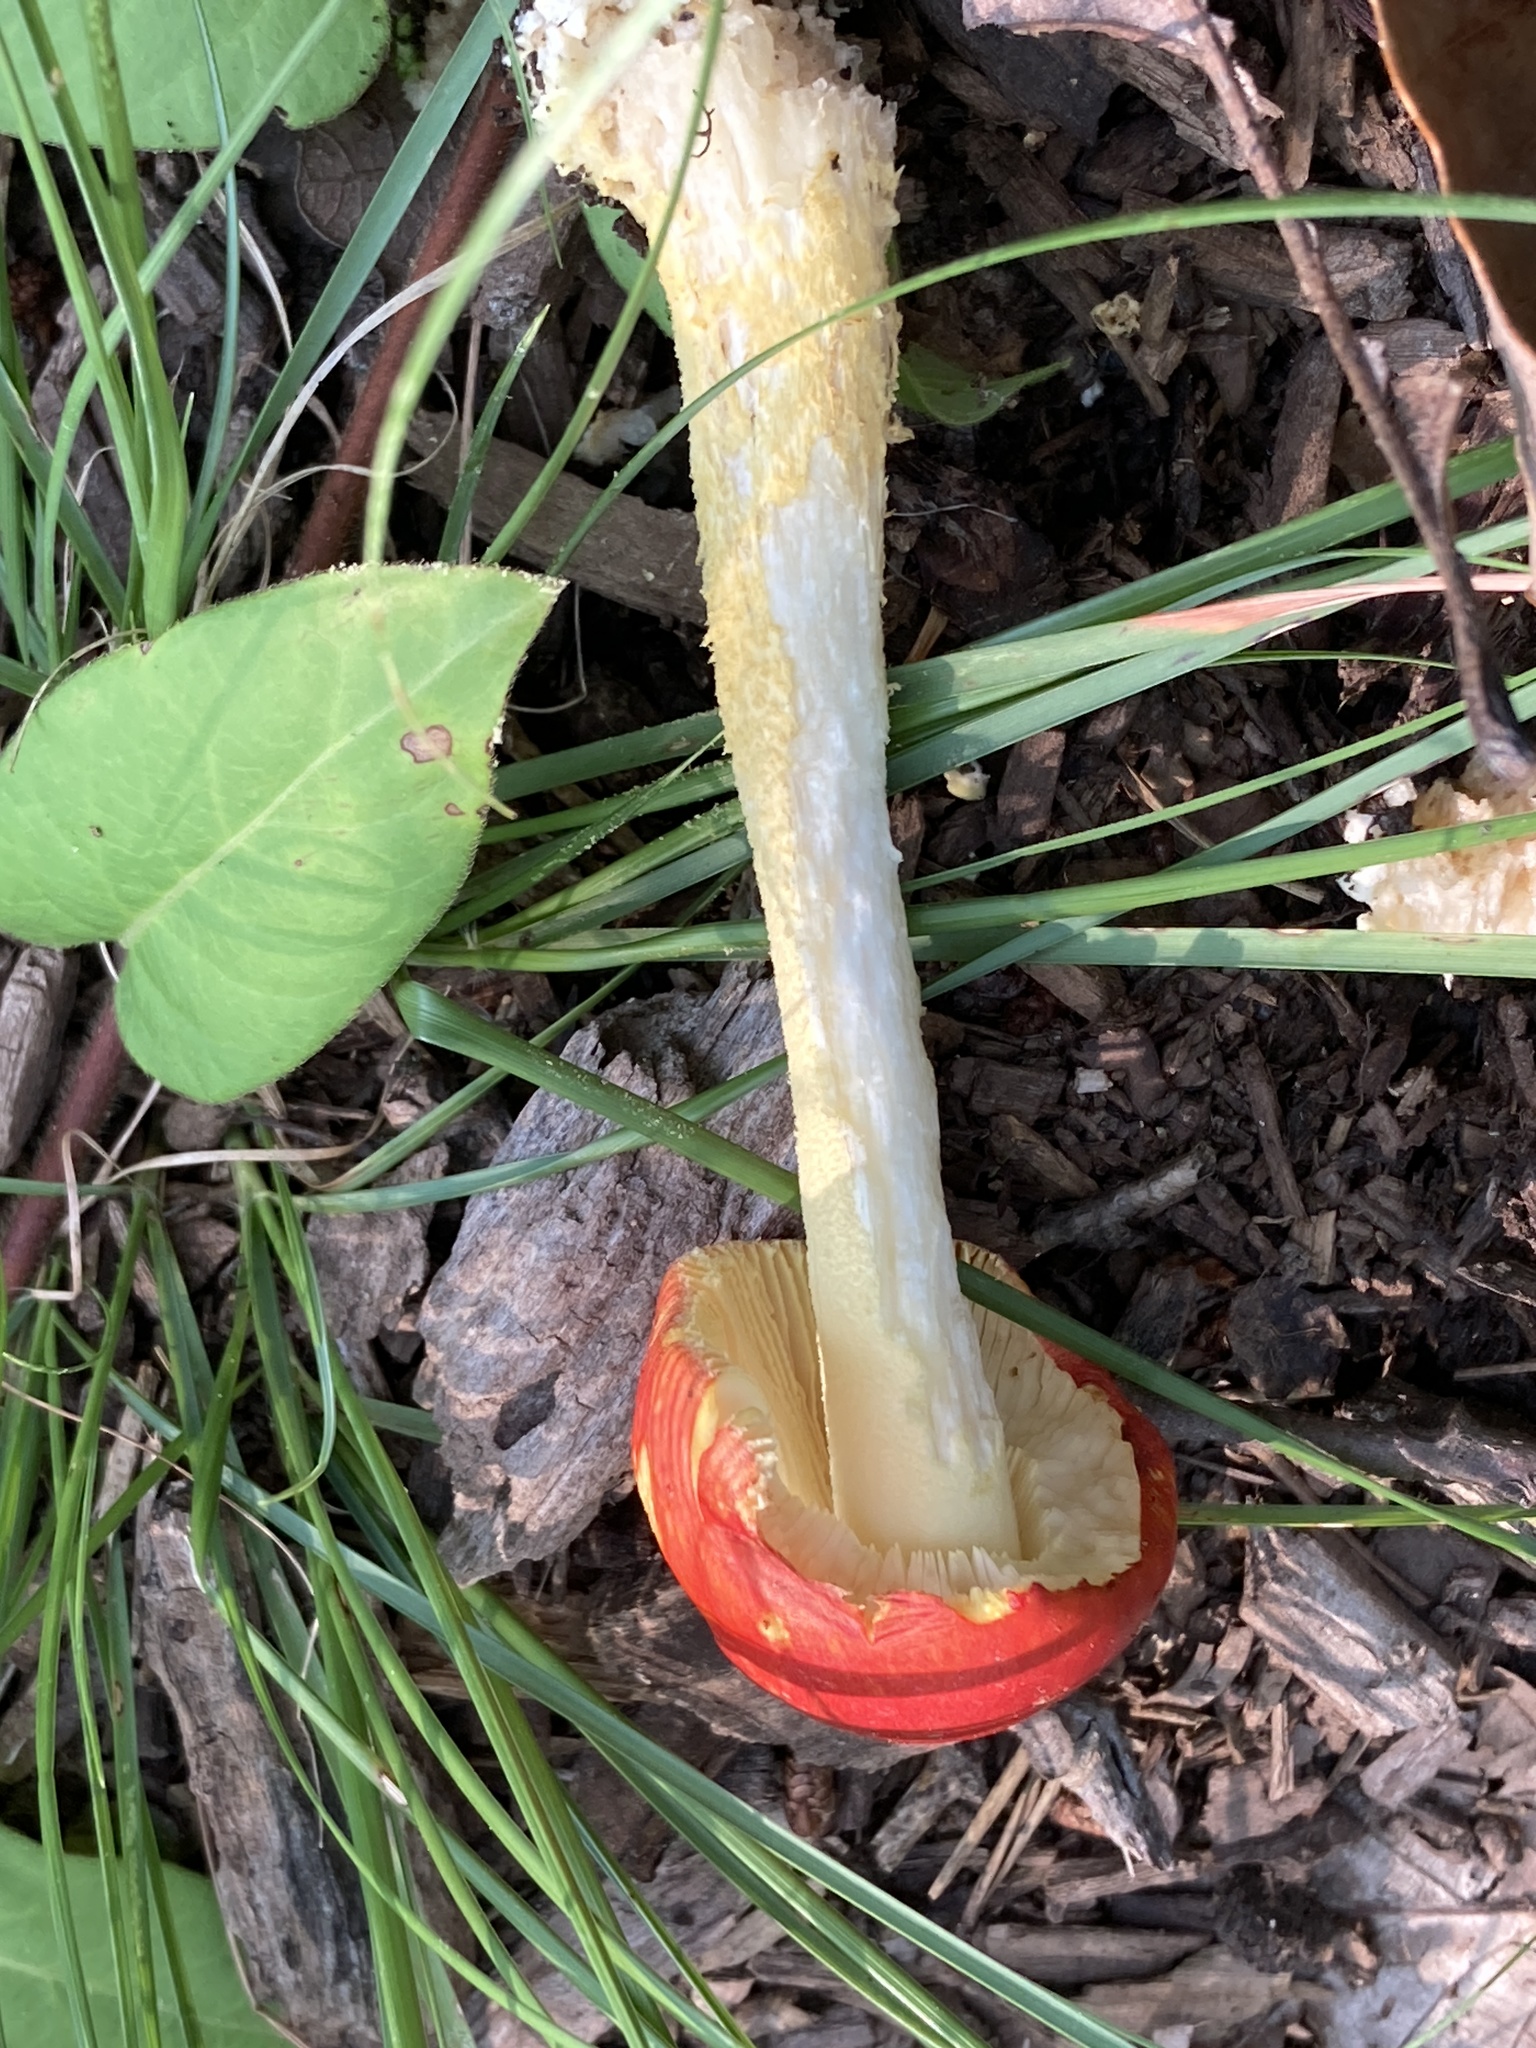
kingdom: Fungi
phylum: Basidiomycota
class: Agaricomycetes
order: Agaricales
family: Amanitaceae
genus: Amanita
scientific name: Amanita parcivolvata
